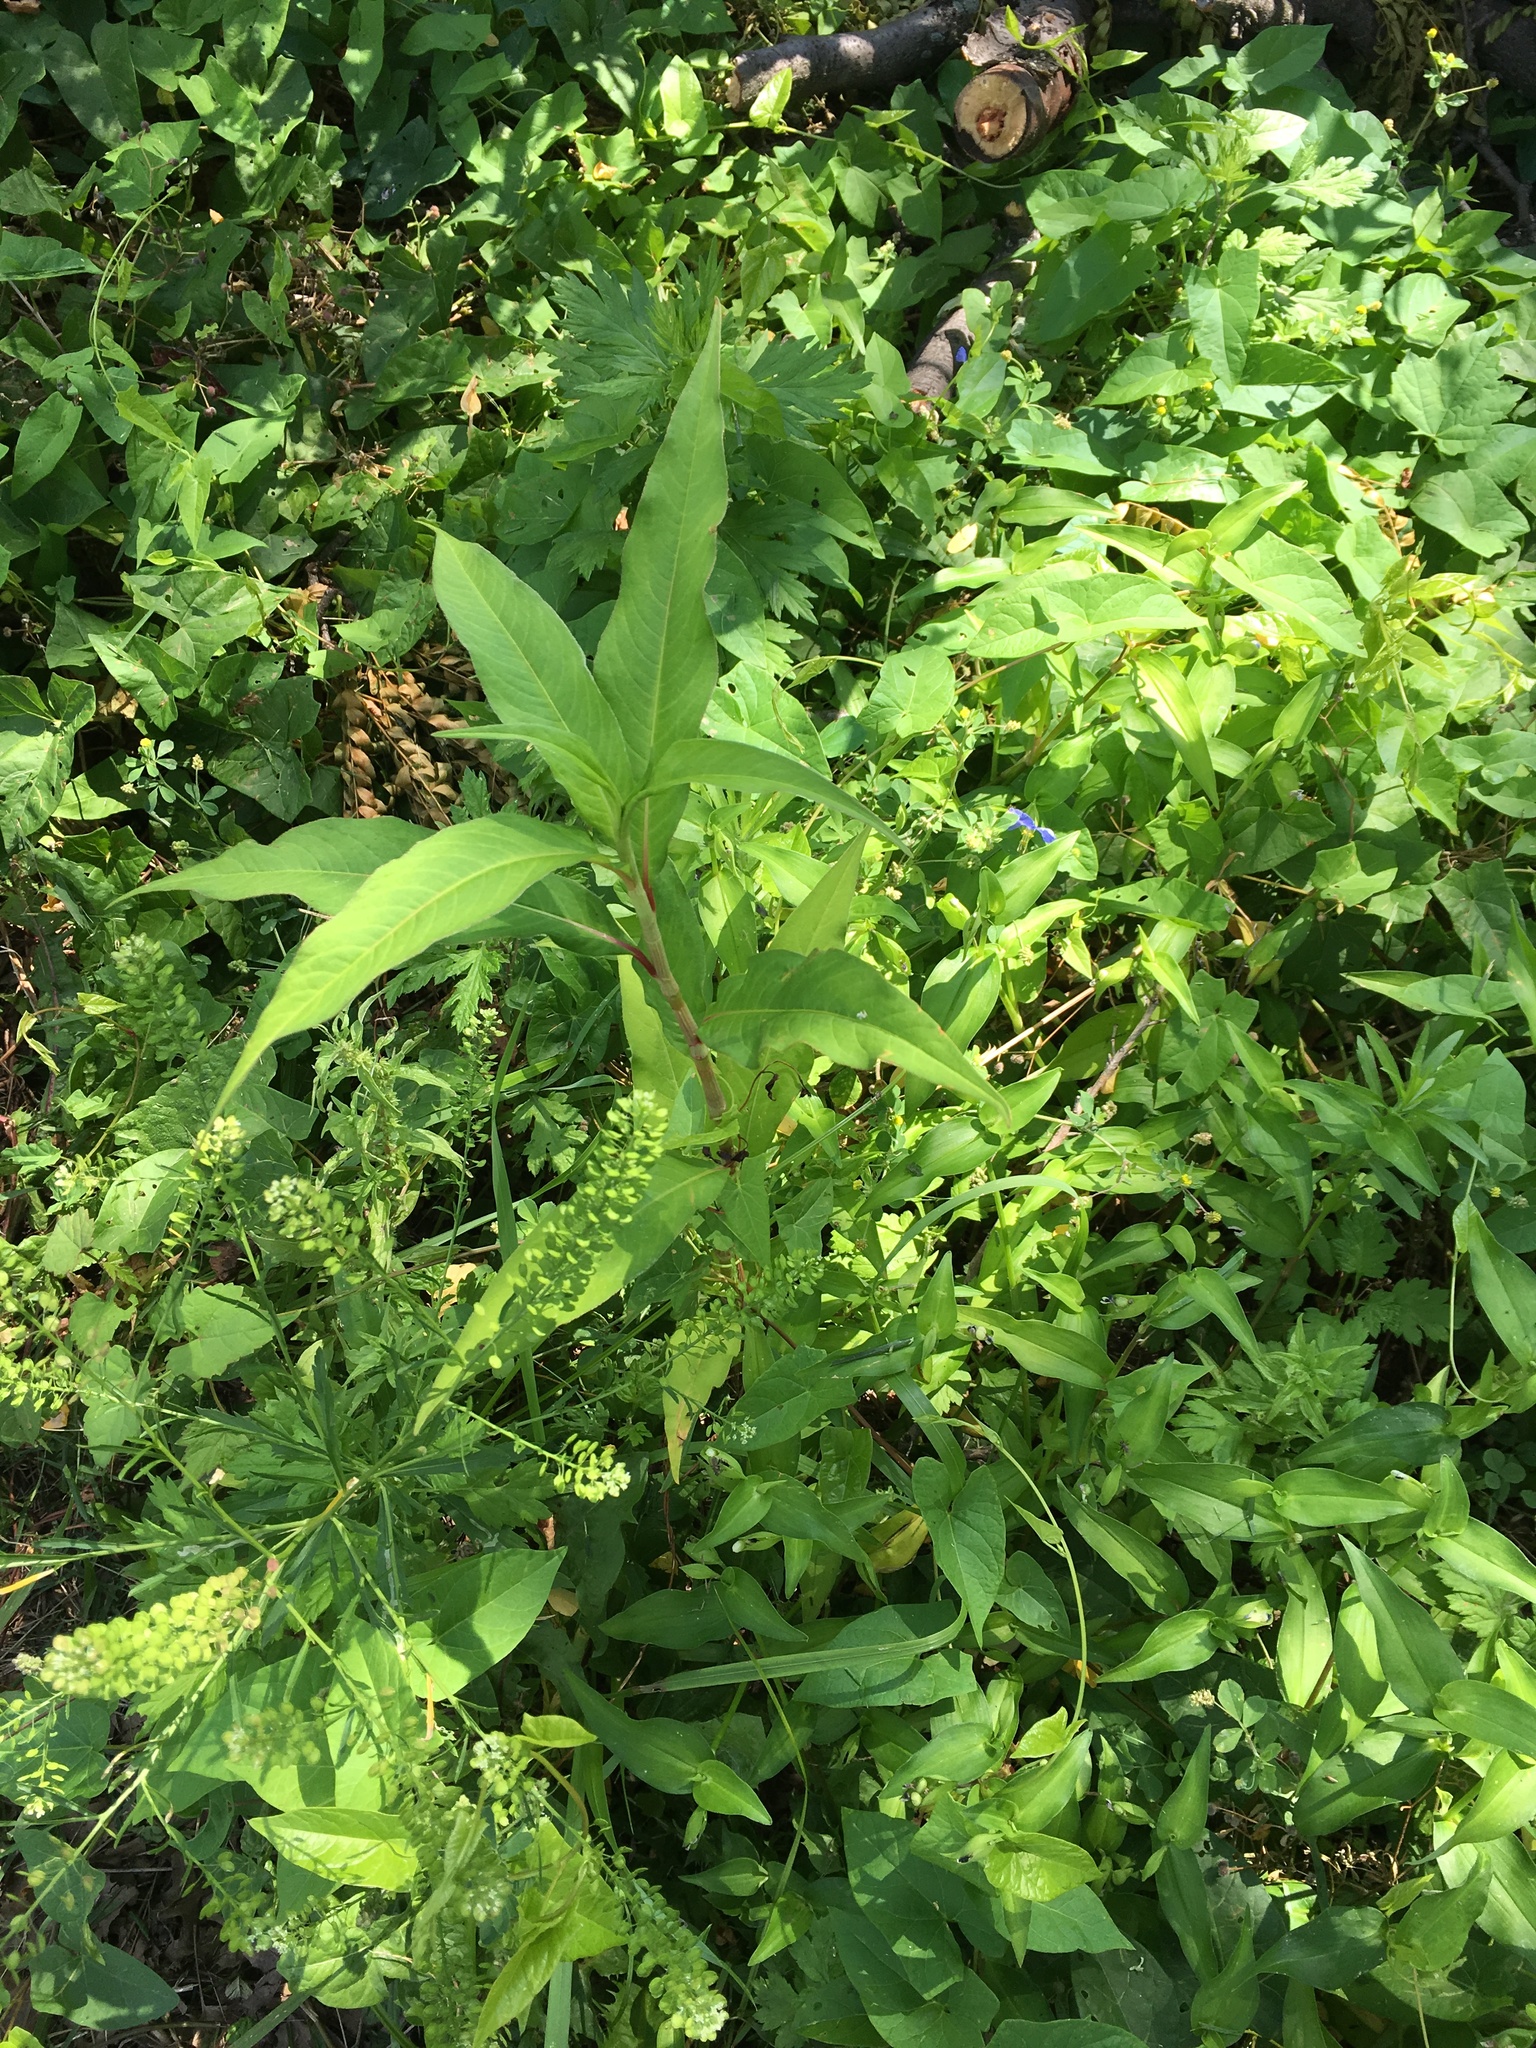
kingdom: Plantae
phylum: Tracheophyta
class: Magnoliopsida
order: Caryophyllales
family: Polygonaceae
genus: Persicaria
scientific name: Persicaria extremiorientalis
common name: Far-eastern smartweed
